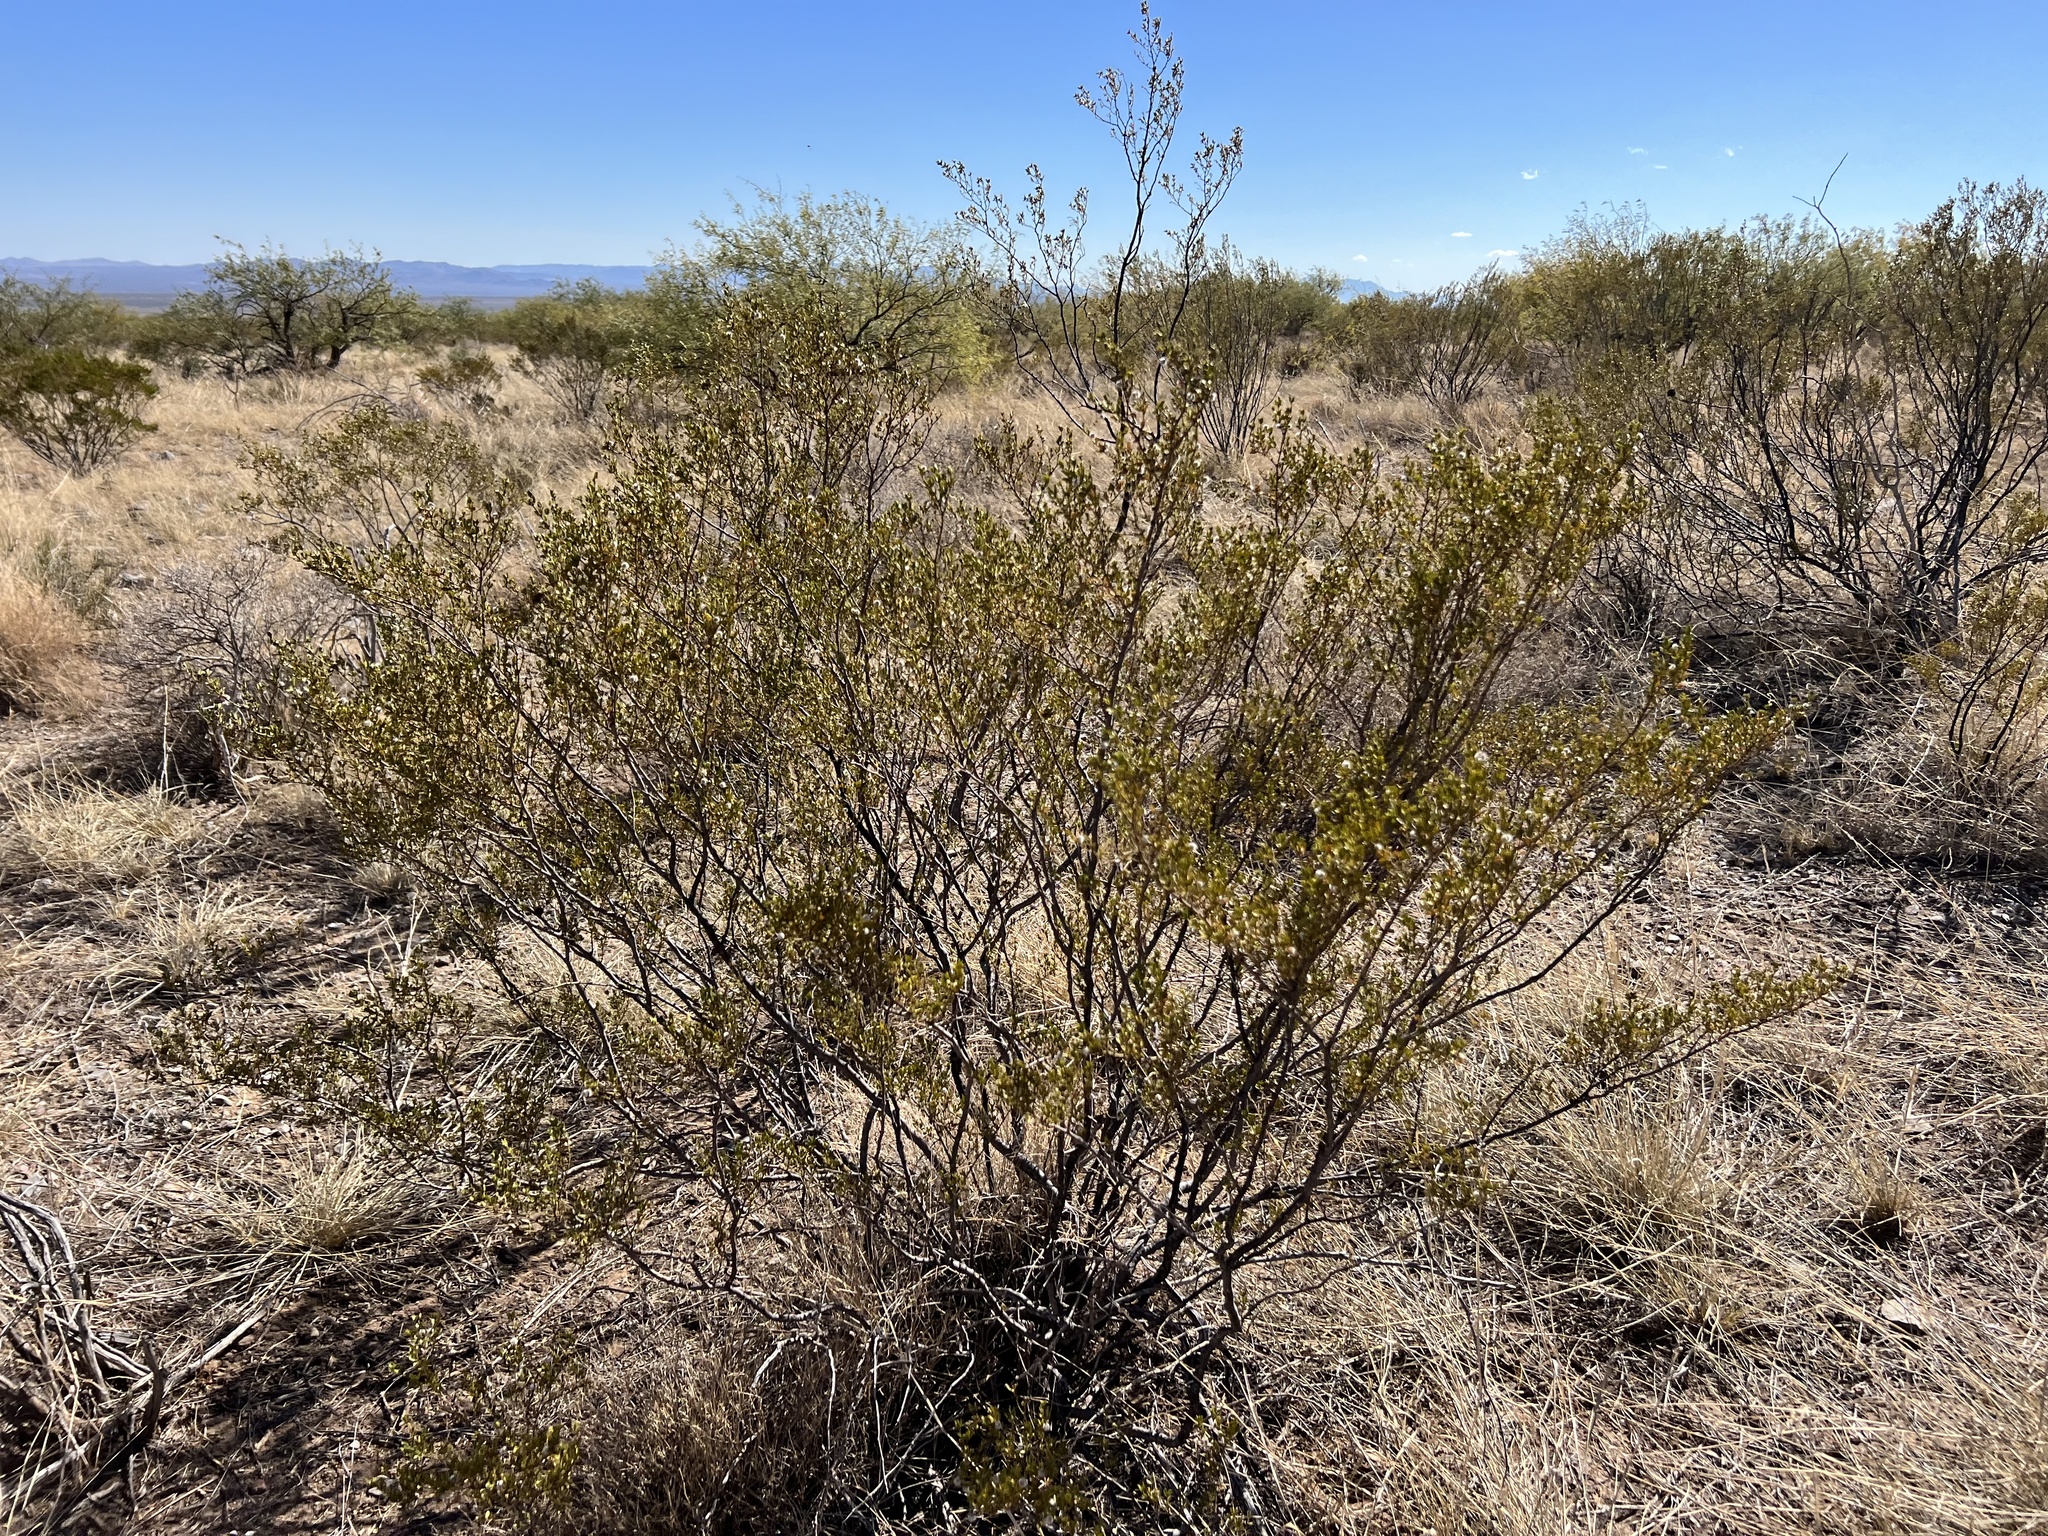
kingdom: Plantae
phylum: Tracheophyta
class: Magnoliopsida
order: Zygophyllales
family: Zygophyllaceae
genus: Larrea
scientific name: Larrea tridentata
